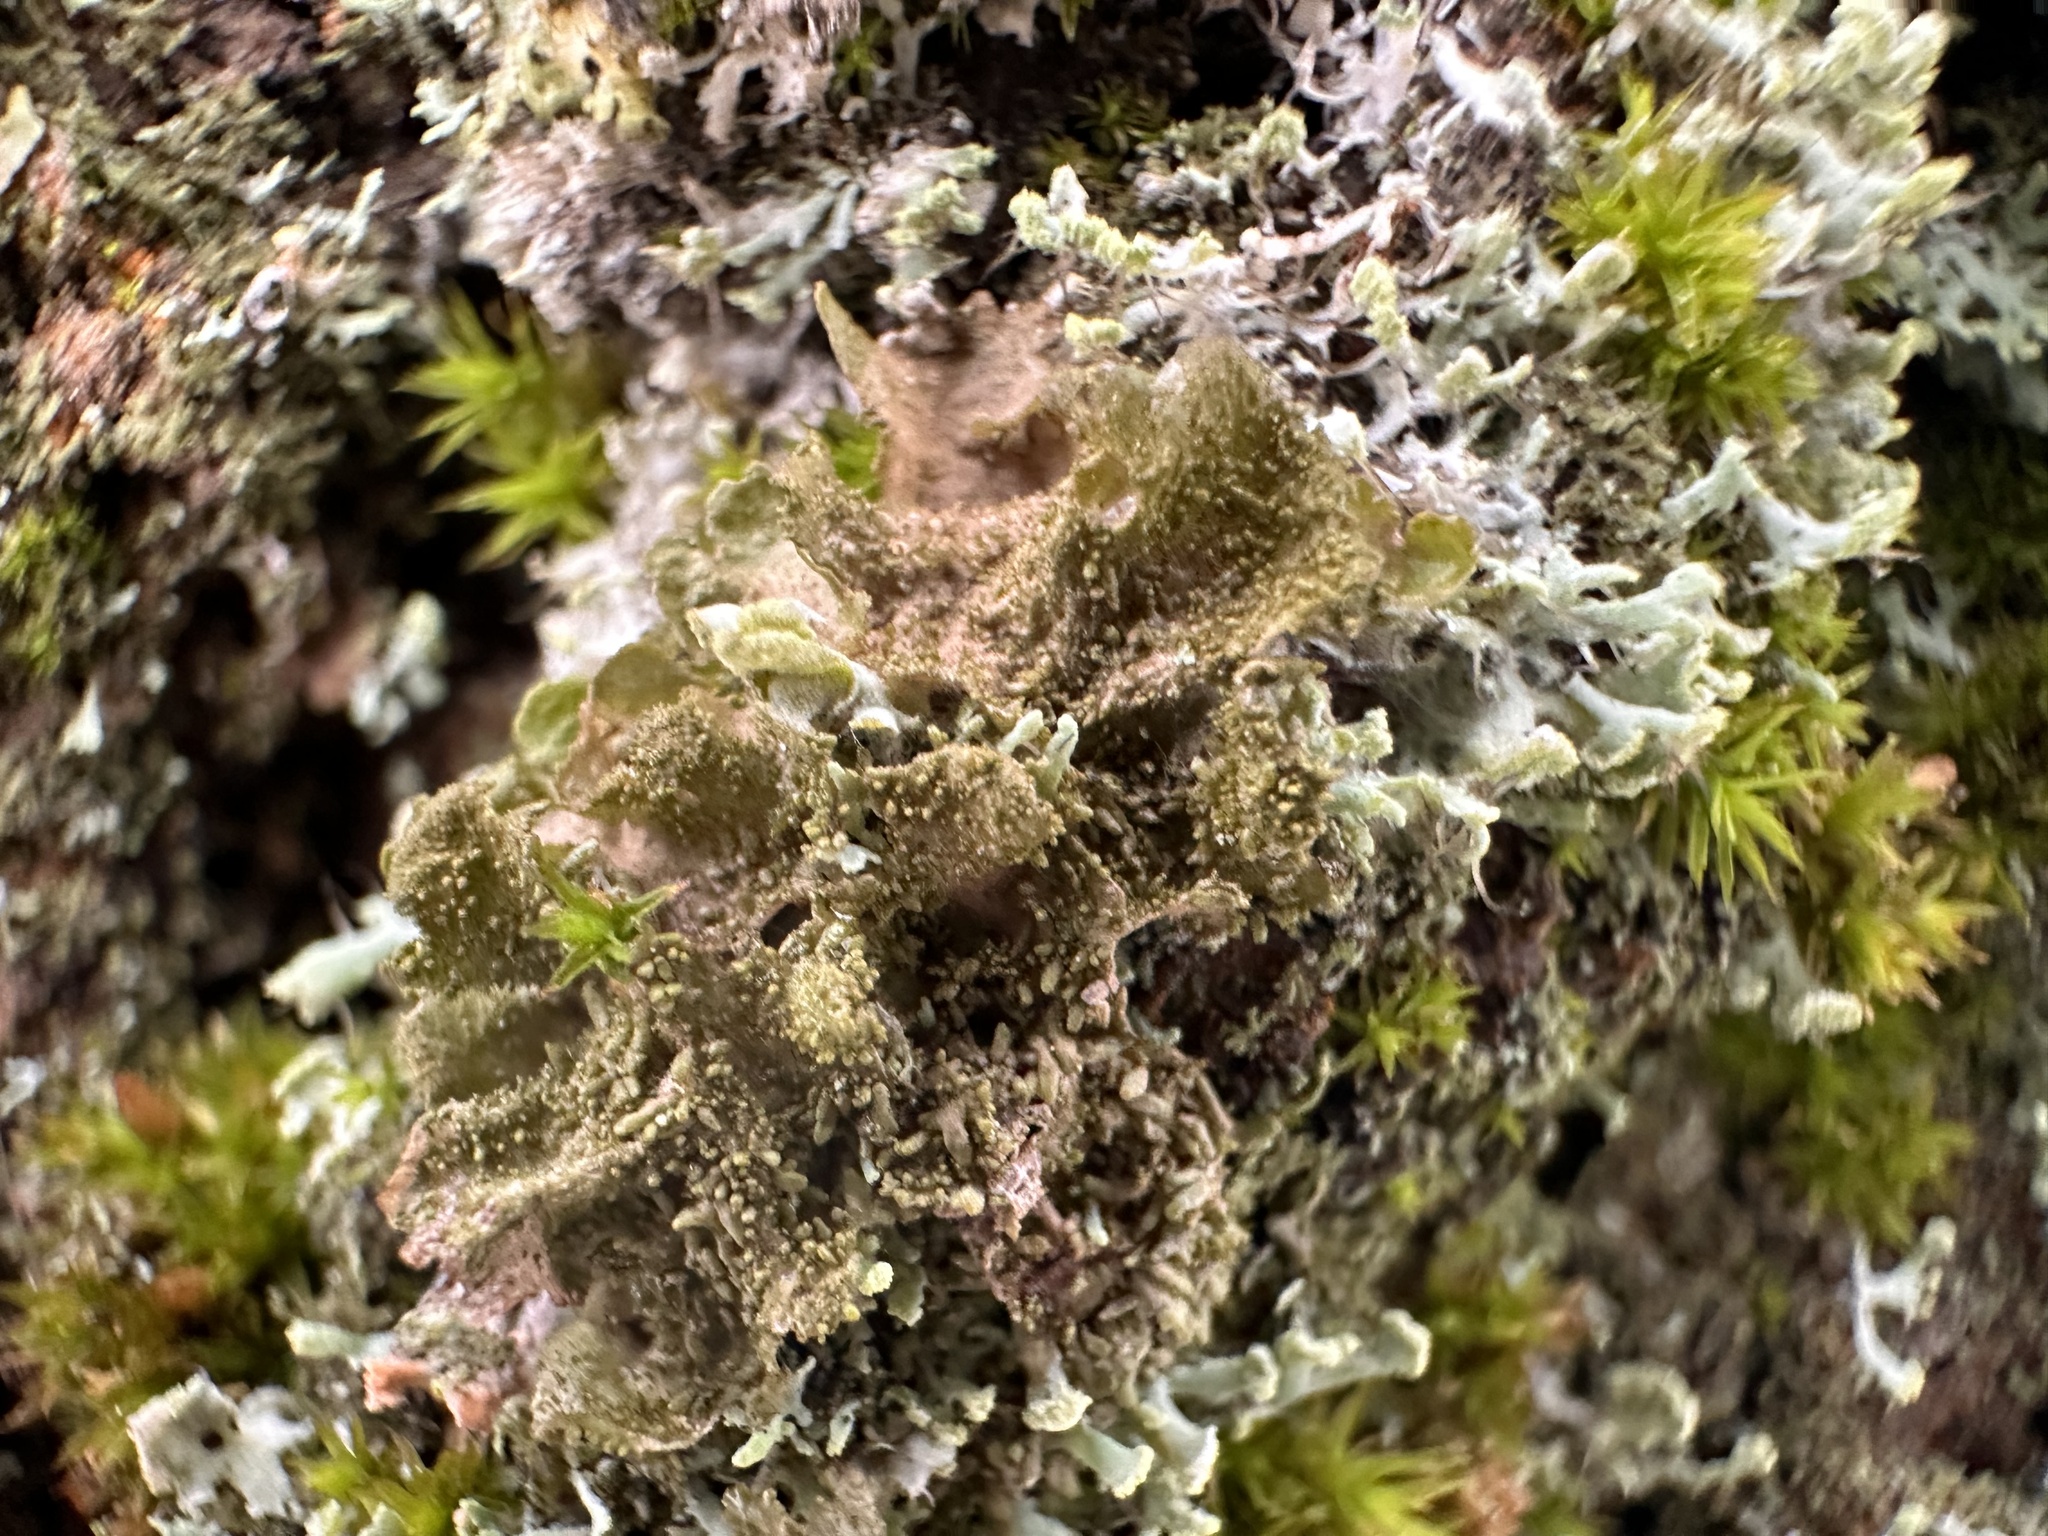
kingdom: Fungi
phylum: Ascomycota
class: Lecanoromycetes
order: Lecanorales
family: Parmeliaceae
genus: Melanohalea
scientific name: Melanohalea exasperatula
